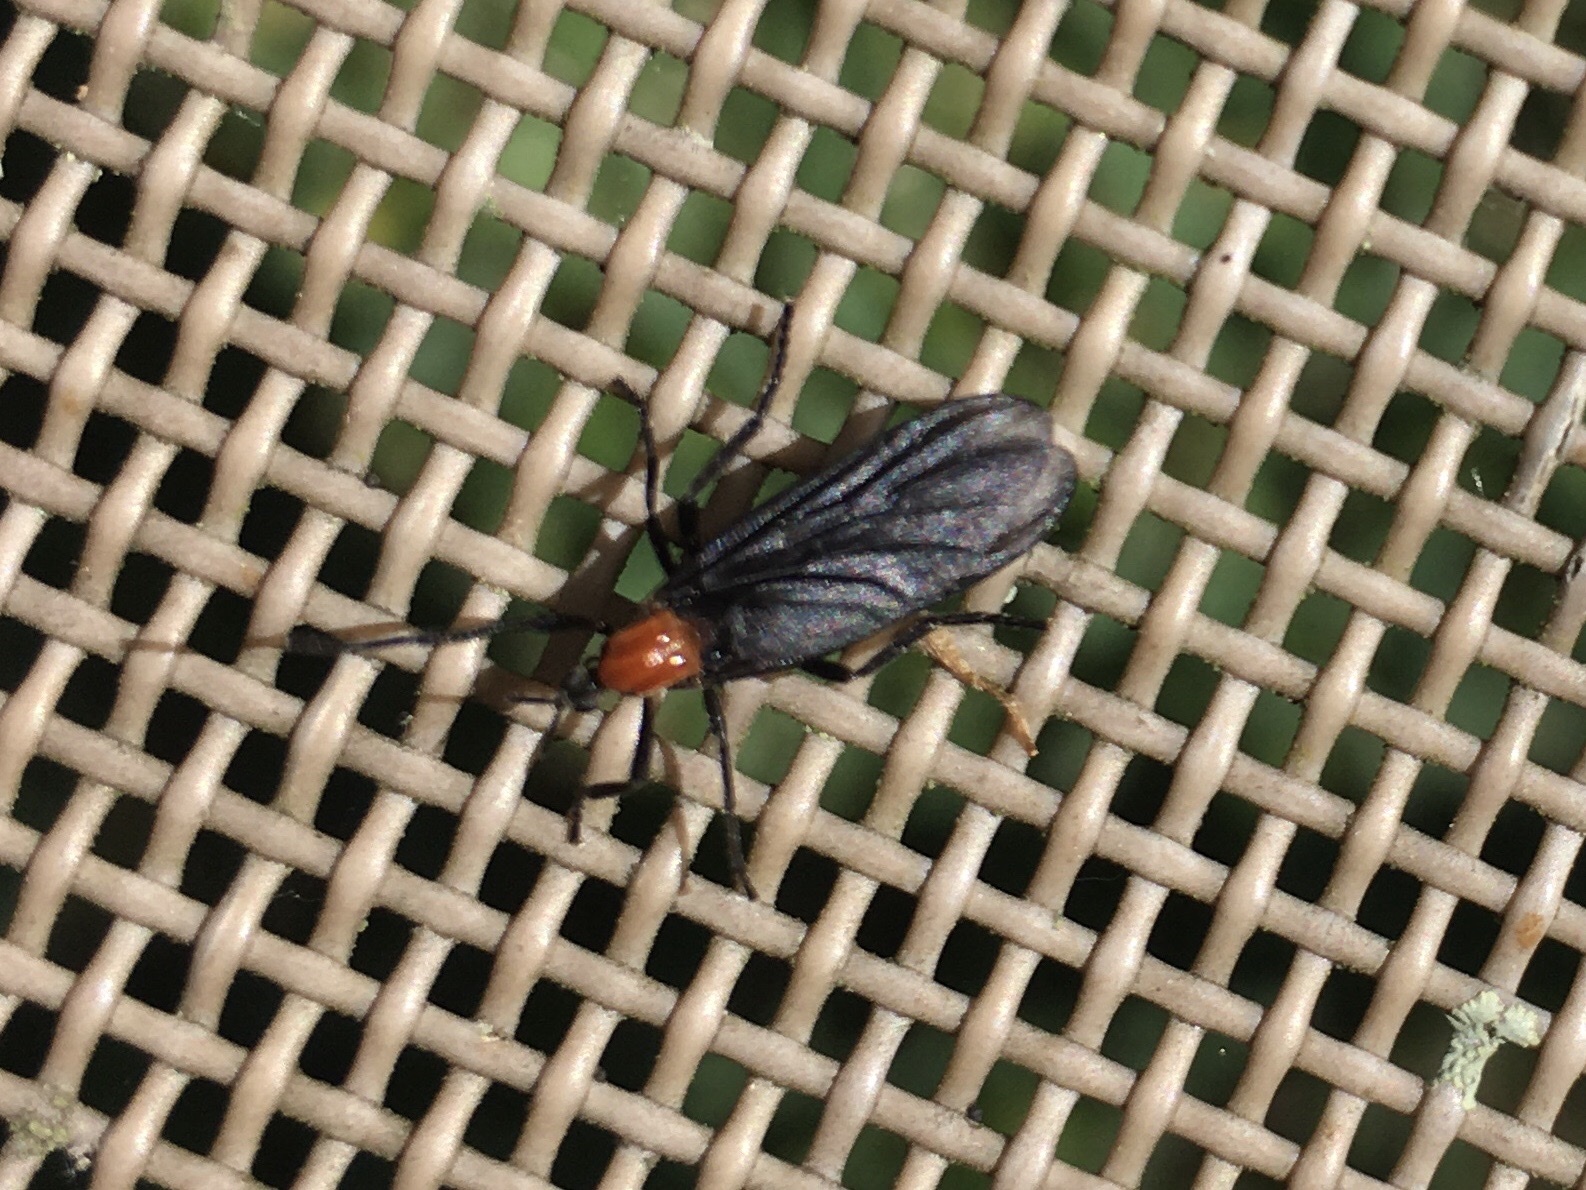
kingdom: Animalia
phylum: Arthropoda
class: Insecta
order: Diptera
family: Bibionidae
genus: Plecia
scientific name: Plecia nearctica
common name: March fly
